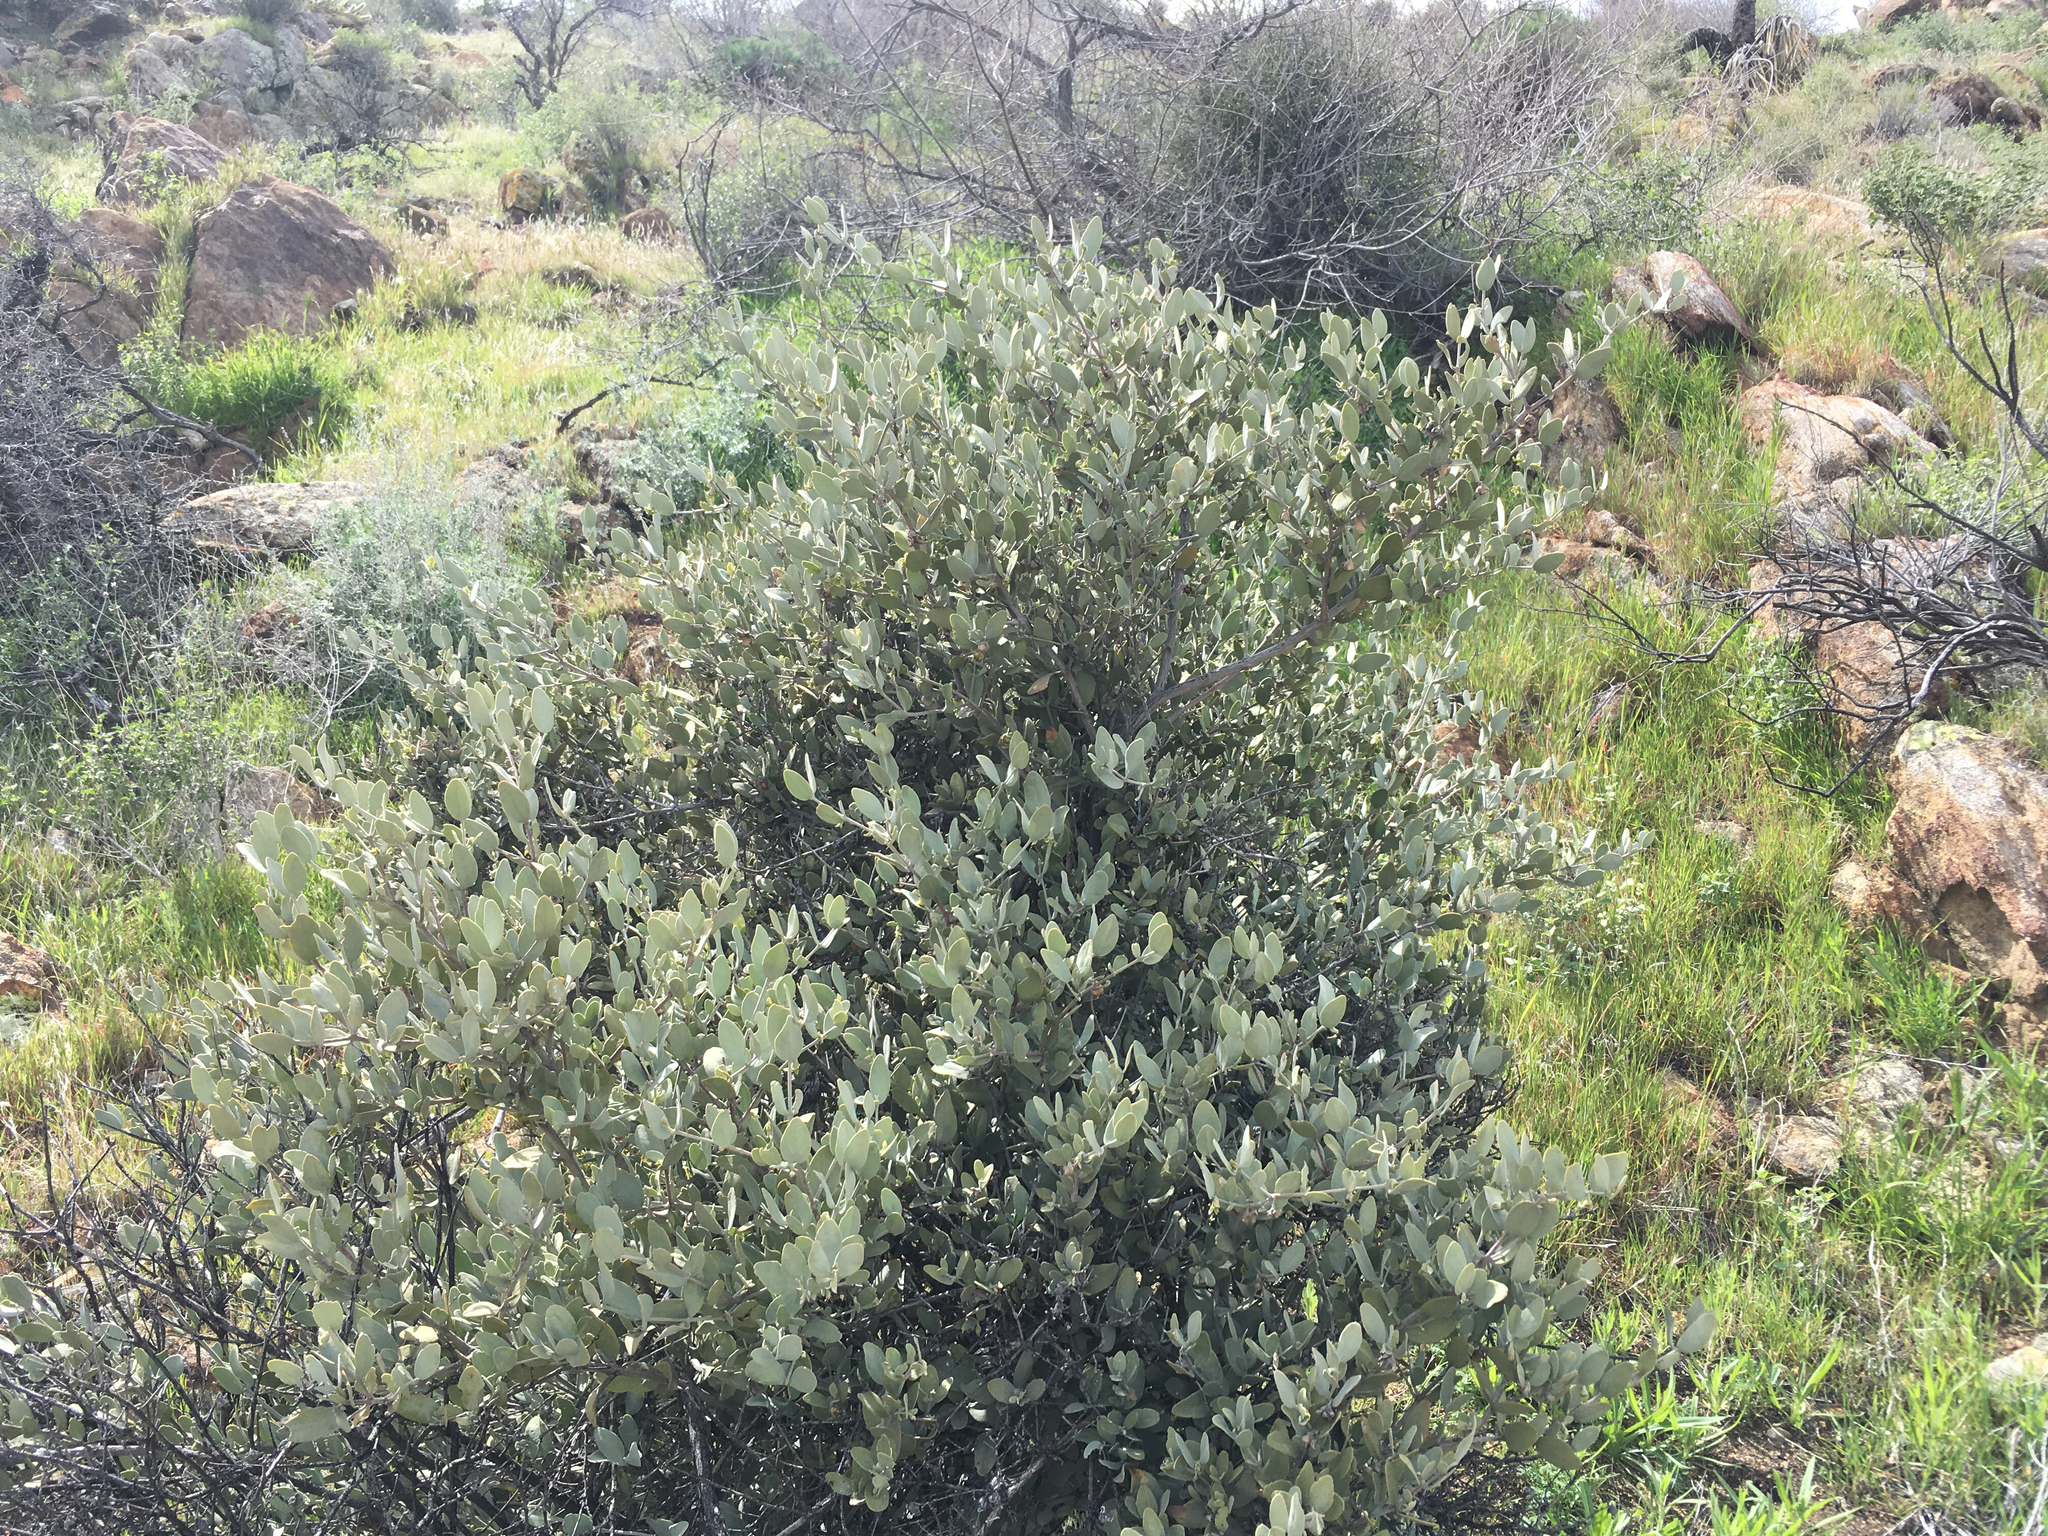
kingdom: Plantae
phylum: Tracheophyta
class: Magnoliopsida
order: Caryophyllales
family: Simmondsiaceae
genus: Simmondsia
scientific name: Simmondsia chinensis
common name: Jojoba
